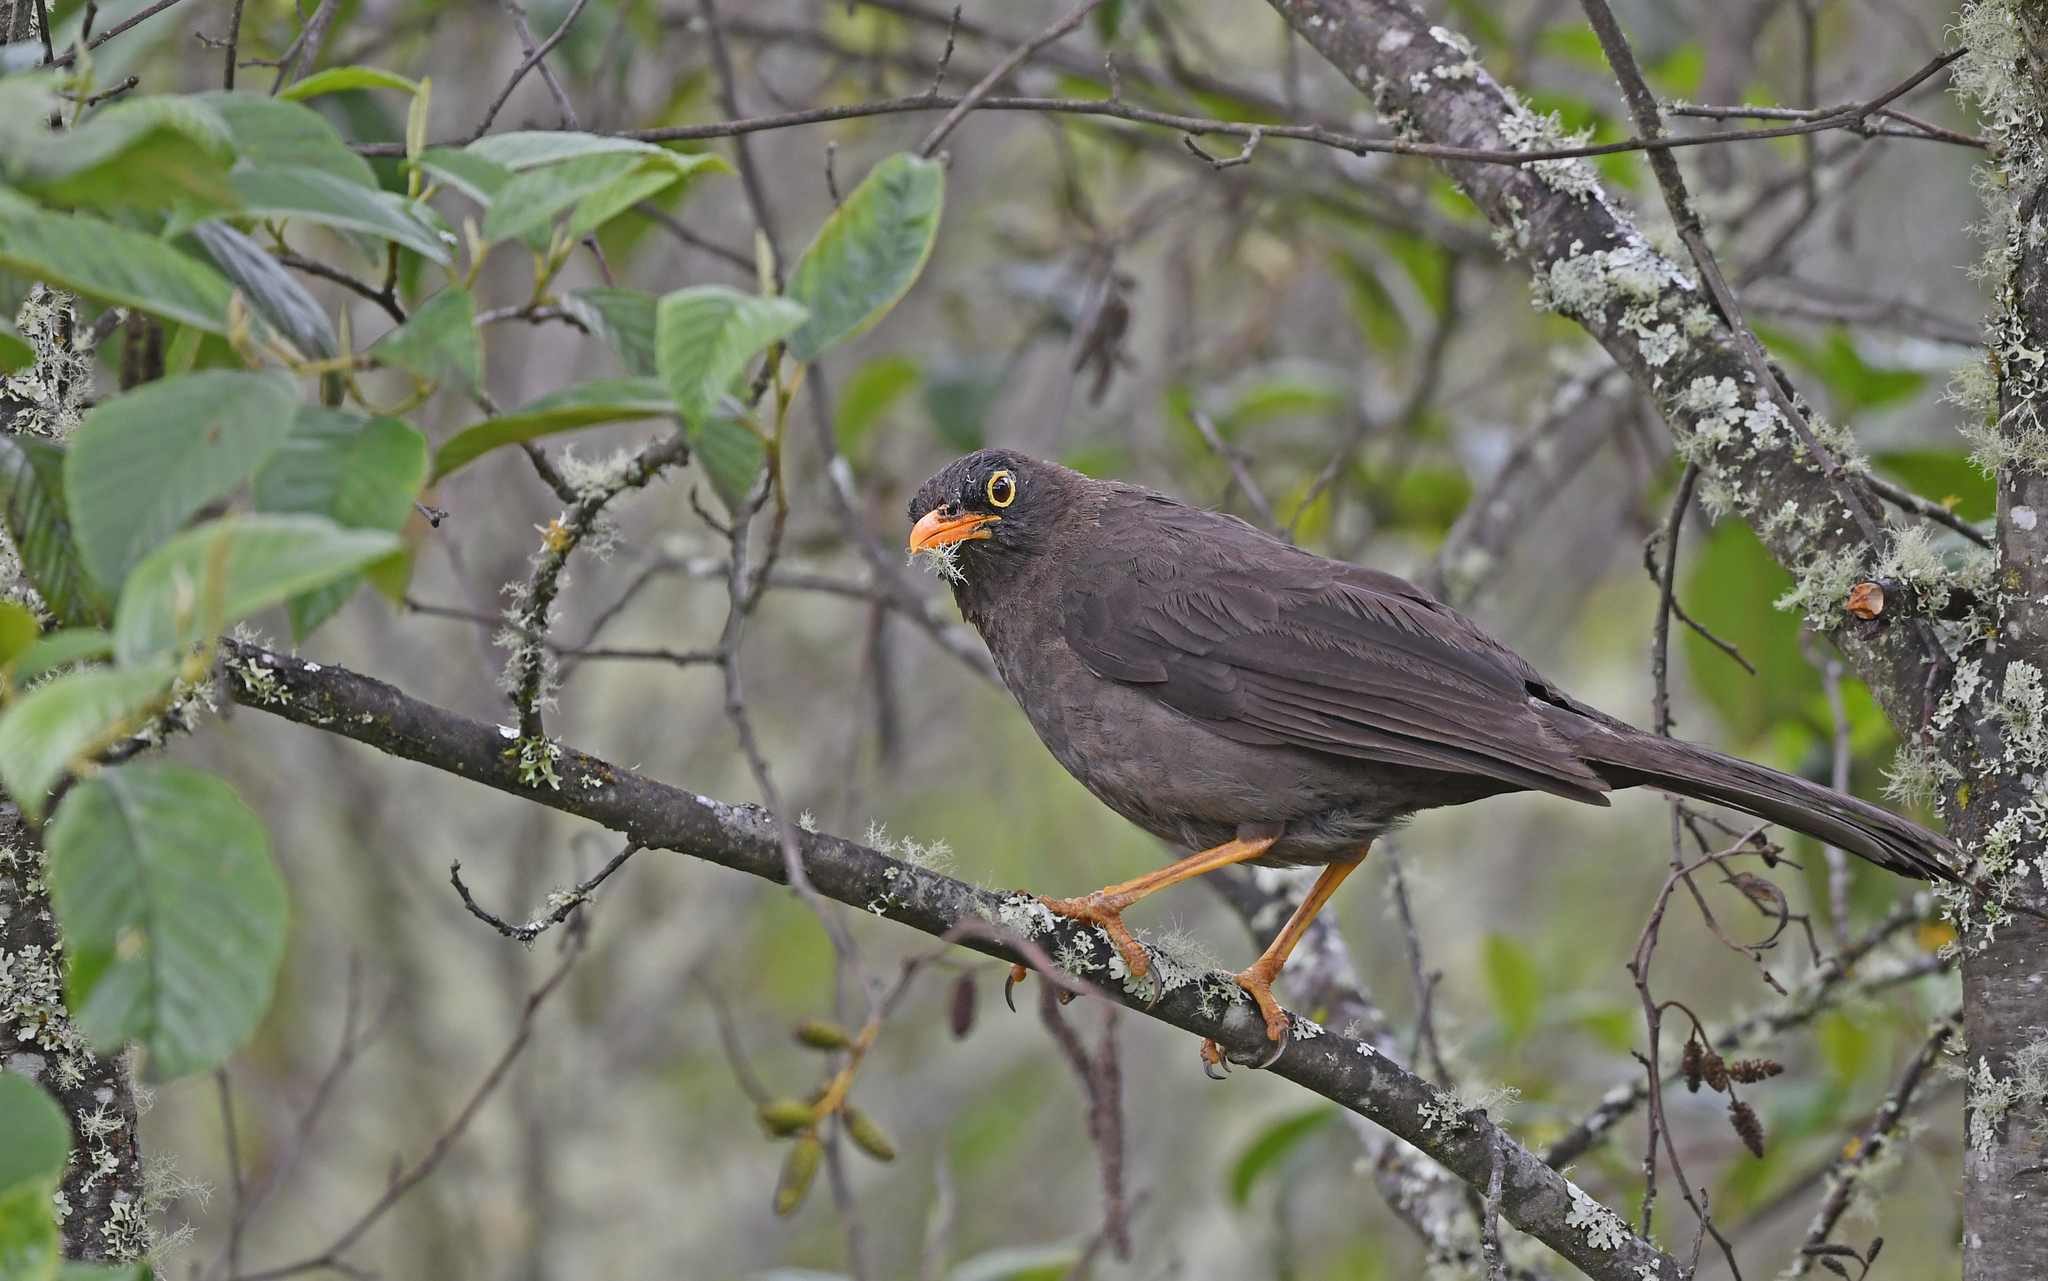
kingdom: Animalia
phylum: Chordata
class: Aves
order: Passeriformes
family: Turdidae
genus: Turdus
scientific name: Turdus fuscater
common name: Great thrush
